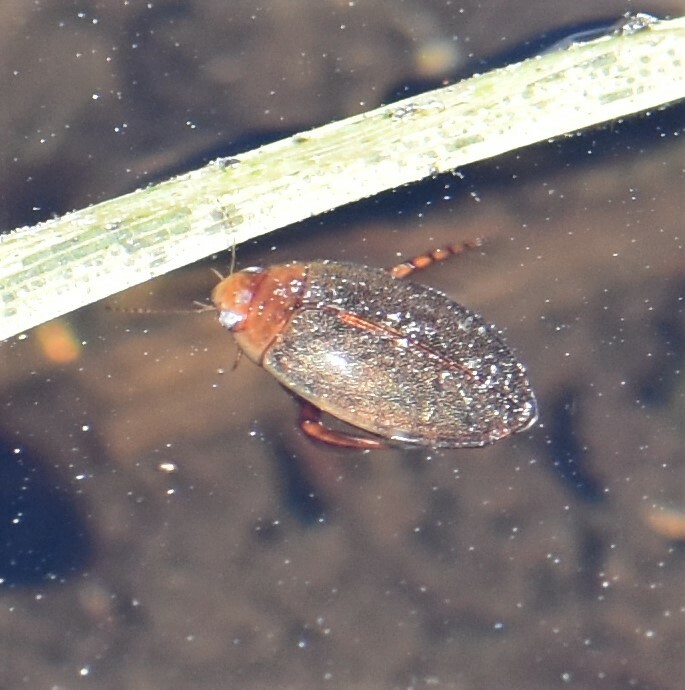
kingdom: Animalia
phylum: Arthropoda
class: Insecta
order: Coleoptera
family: Dytiscidae
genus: Graphoderus
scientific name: Graphoderus liberus
